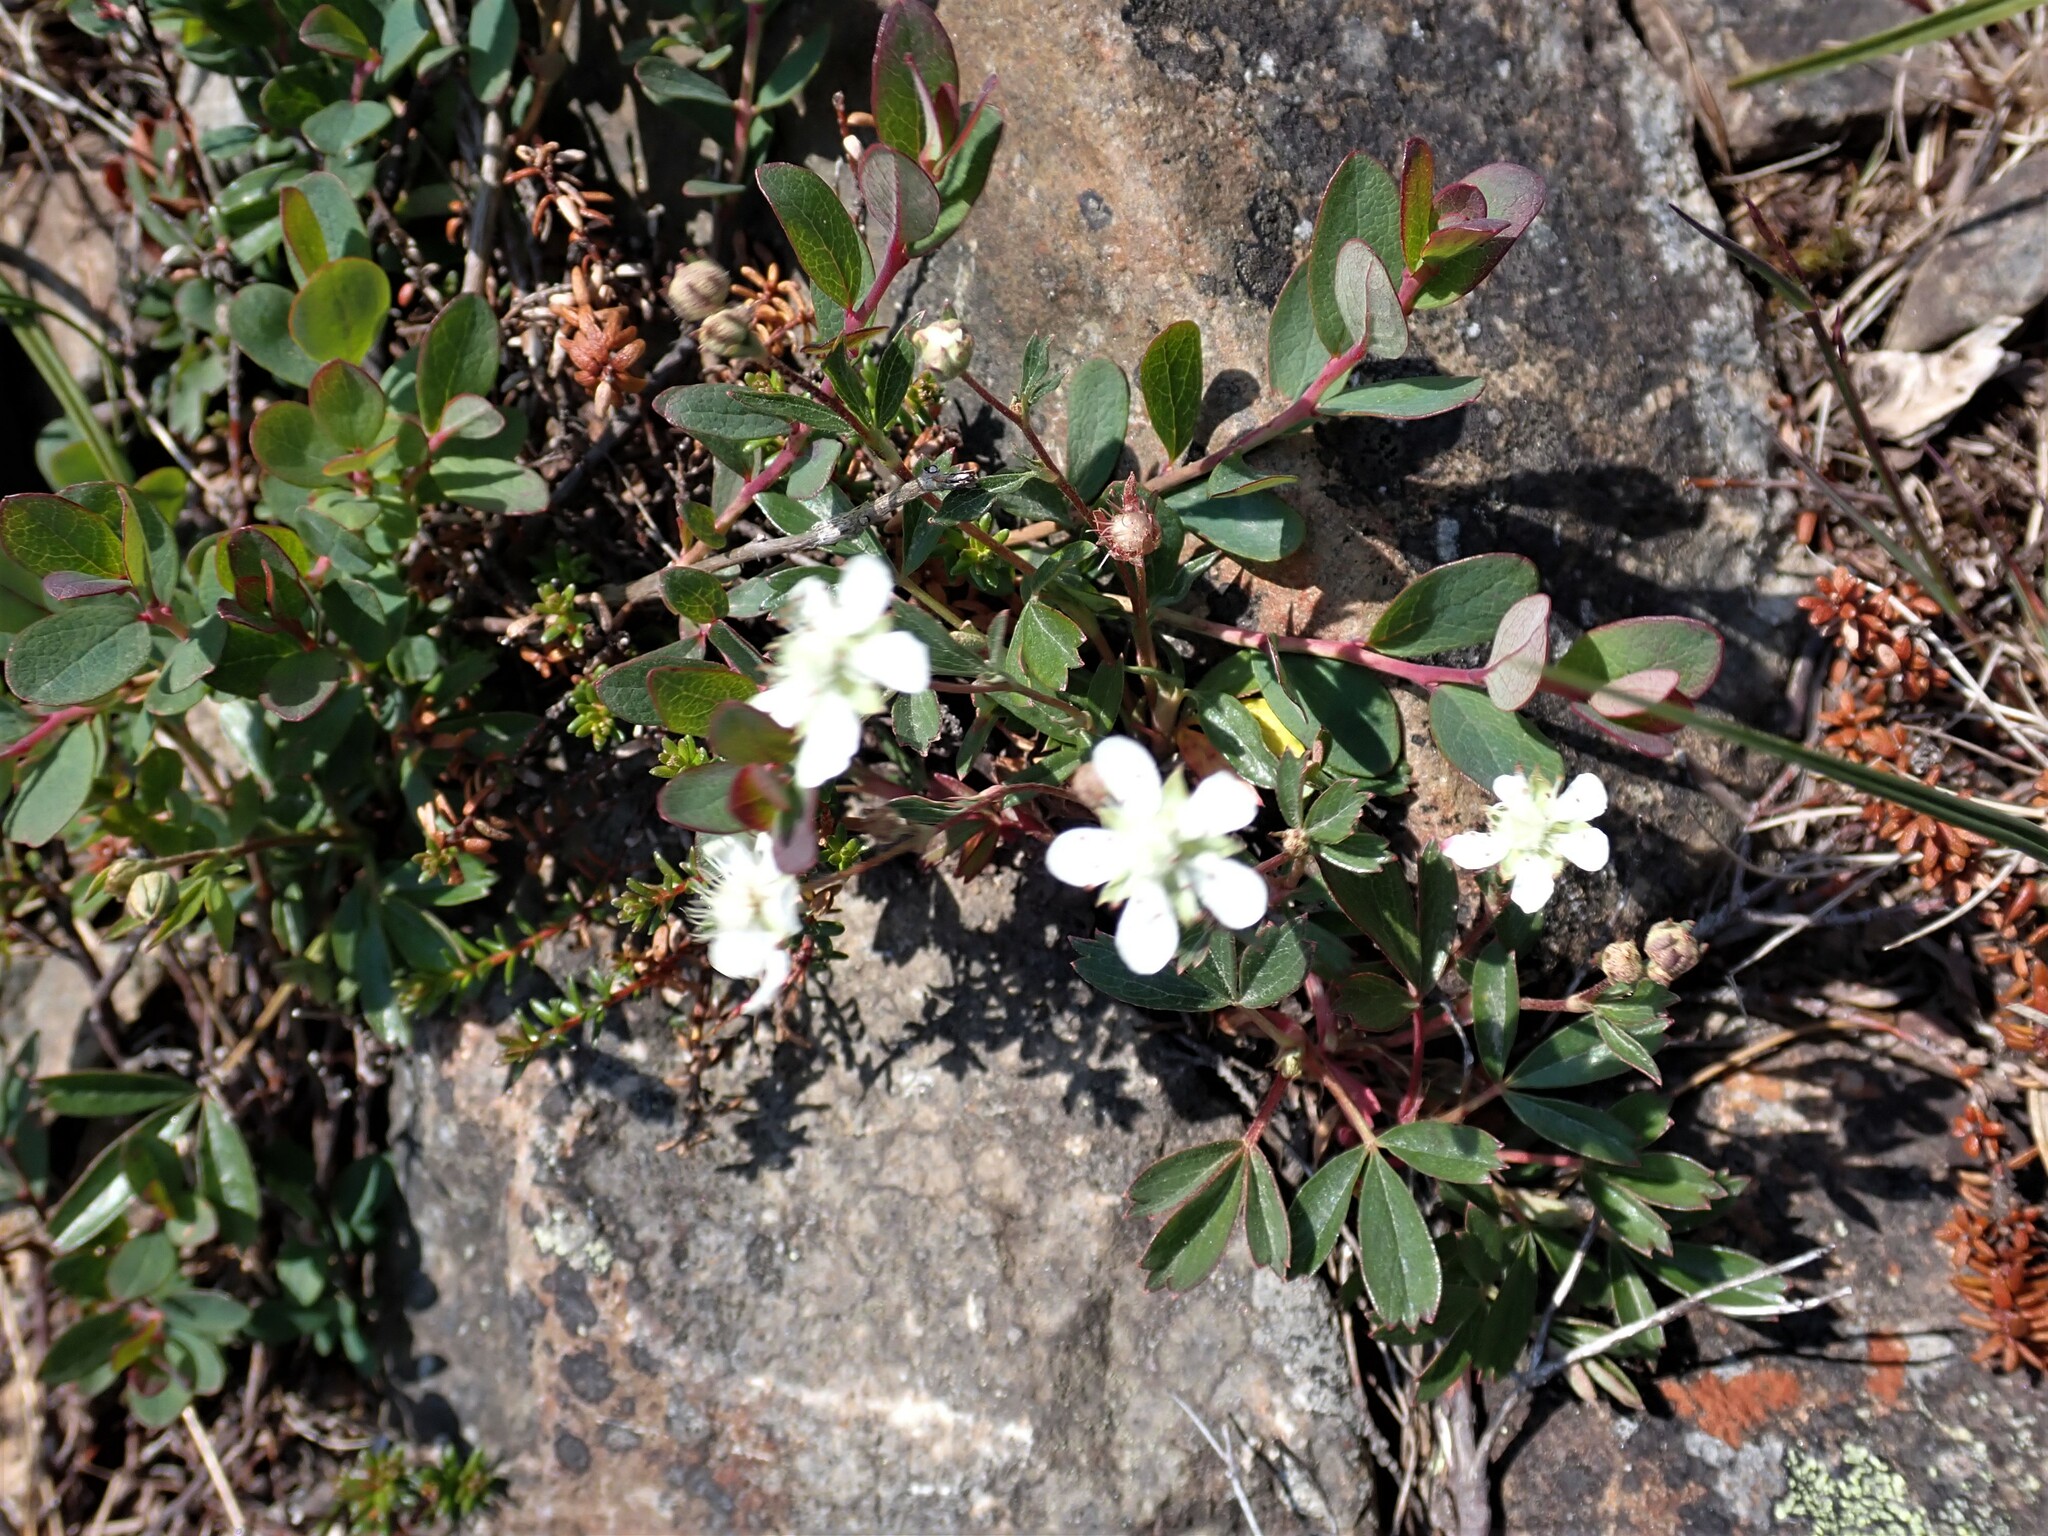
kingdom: Plantae
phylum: Tracheophyta
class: Magnoliopsida
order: Rosales
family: Rosaceae
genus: Sibbaldia
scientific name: Sibbaldia tridentata
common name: Three-toothed cinquefoil
